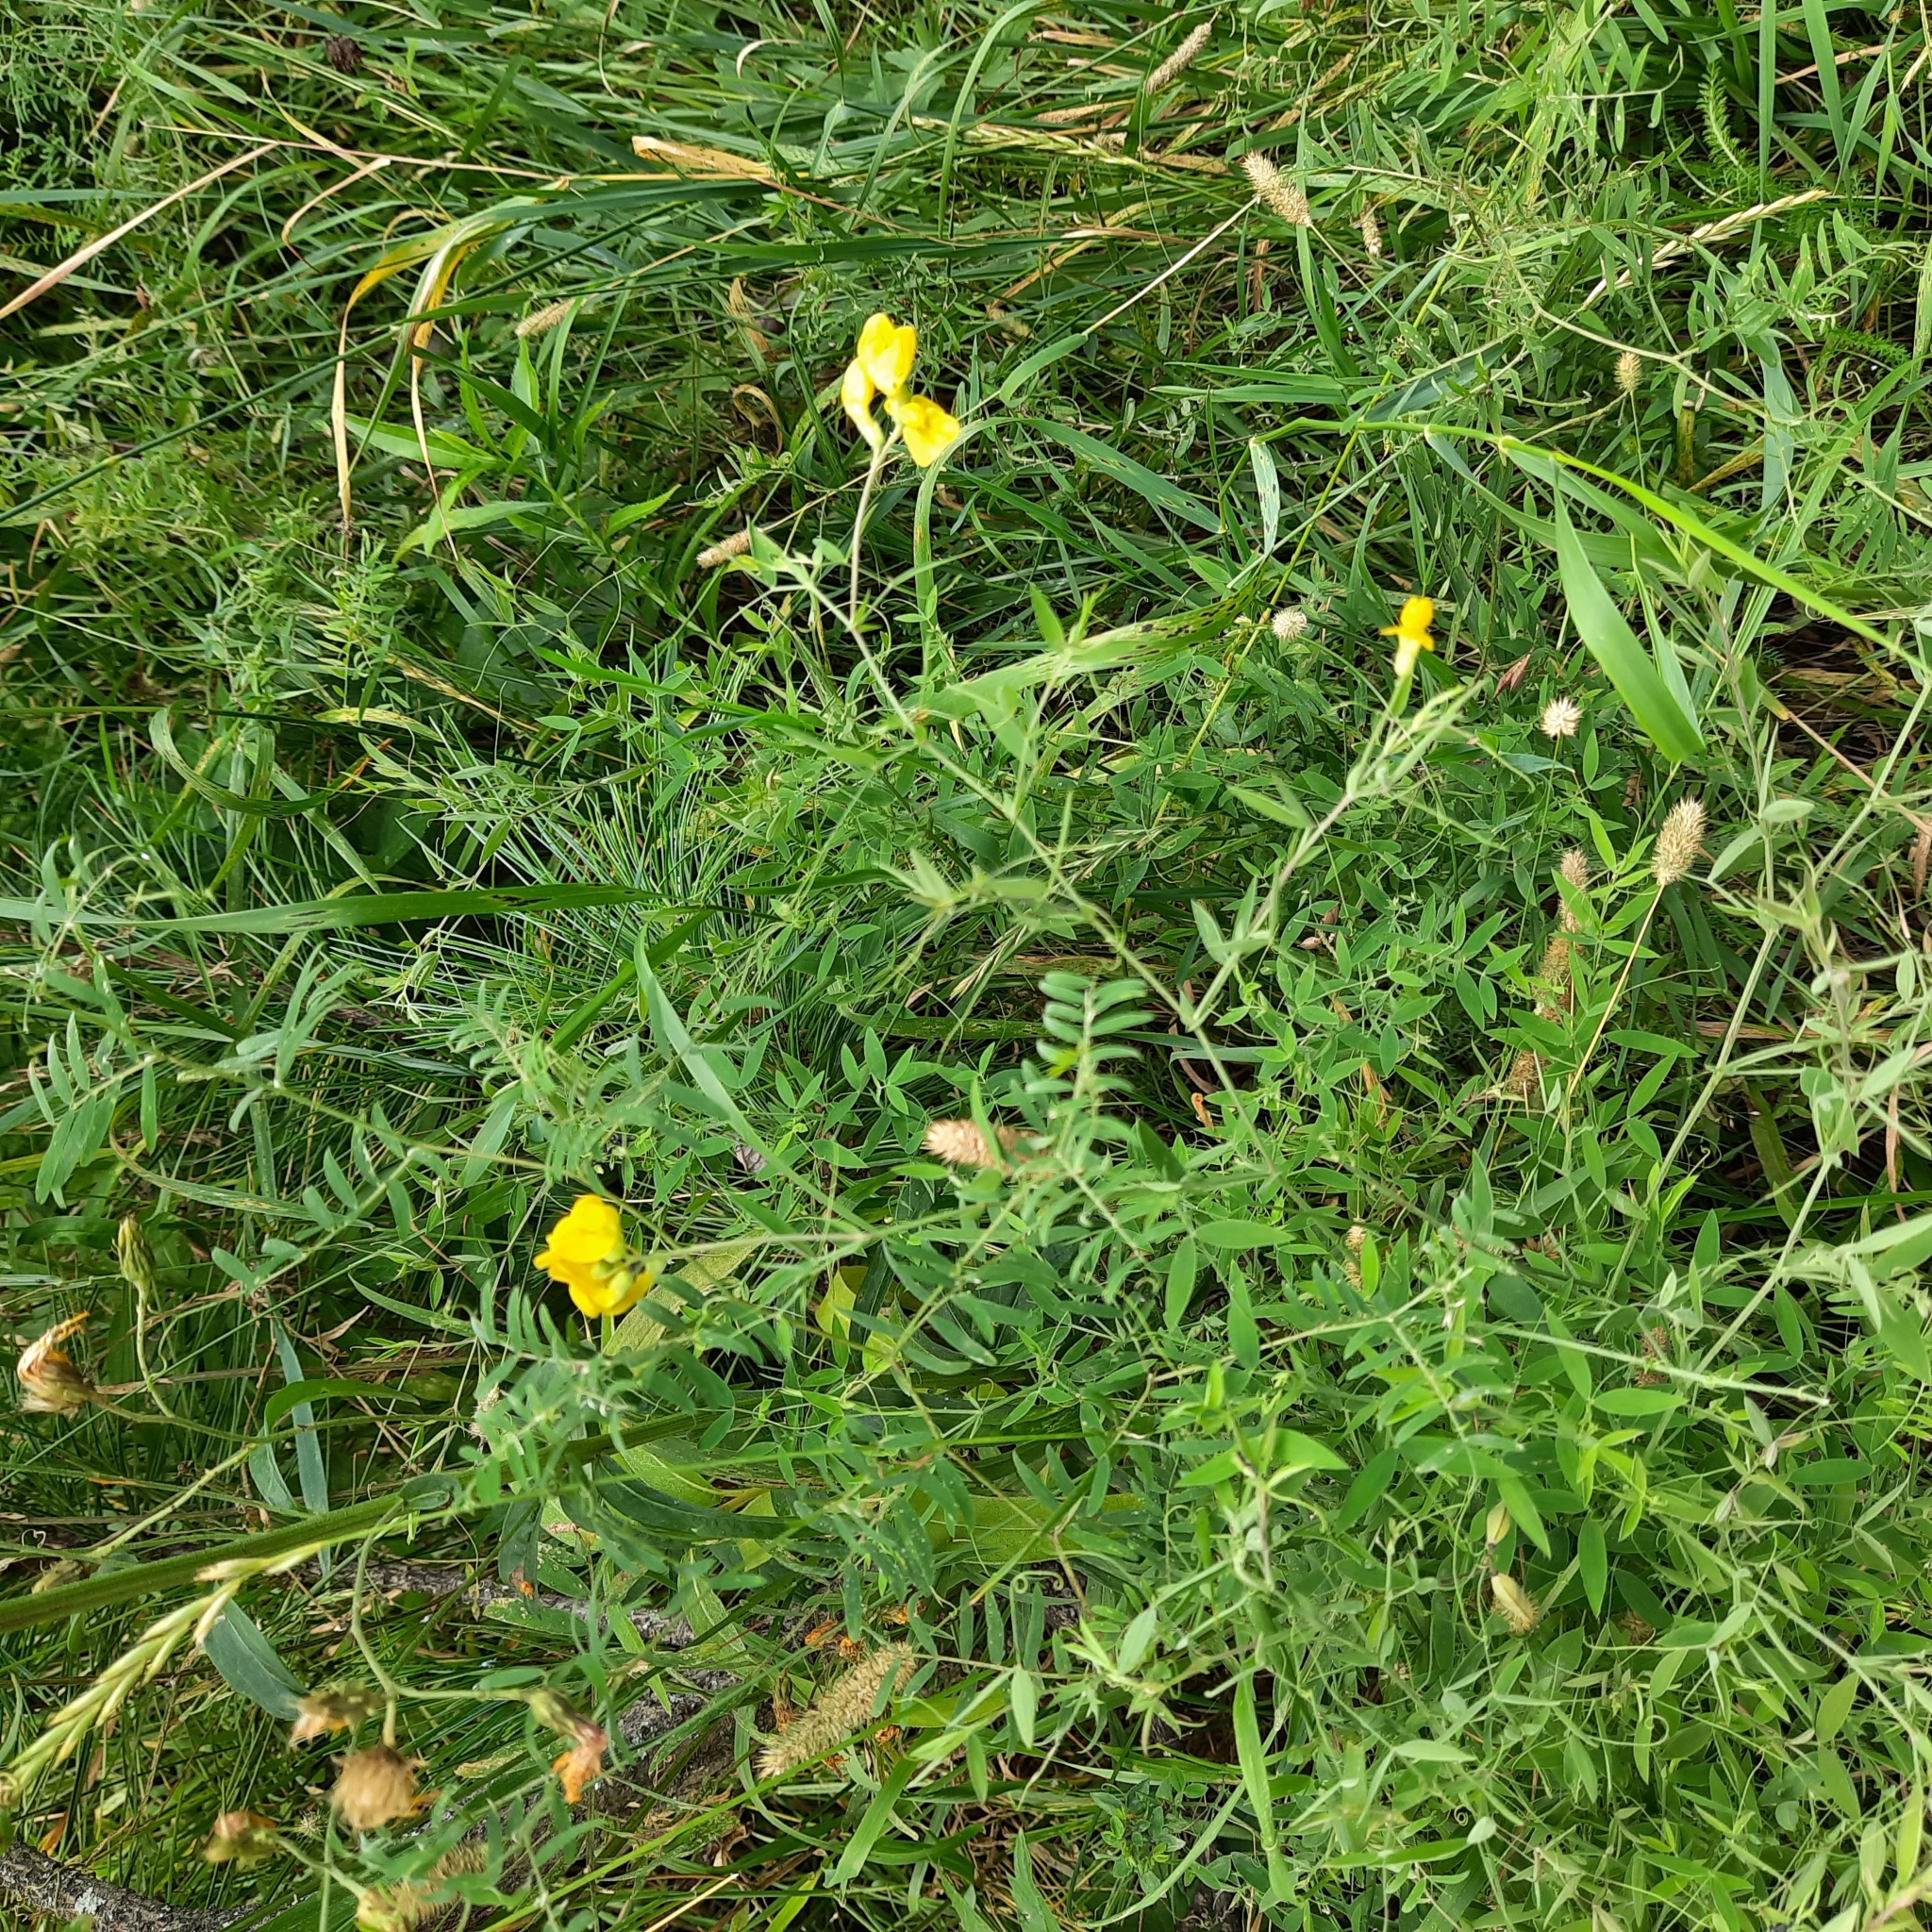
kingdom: Plantae
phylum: Tracheophyta
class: Magnoliopsida
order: Fabales
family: Fabaceae
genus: Lathyrus
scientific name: Lathyrus pratensis
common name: Meadow vetchling
